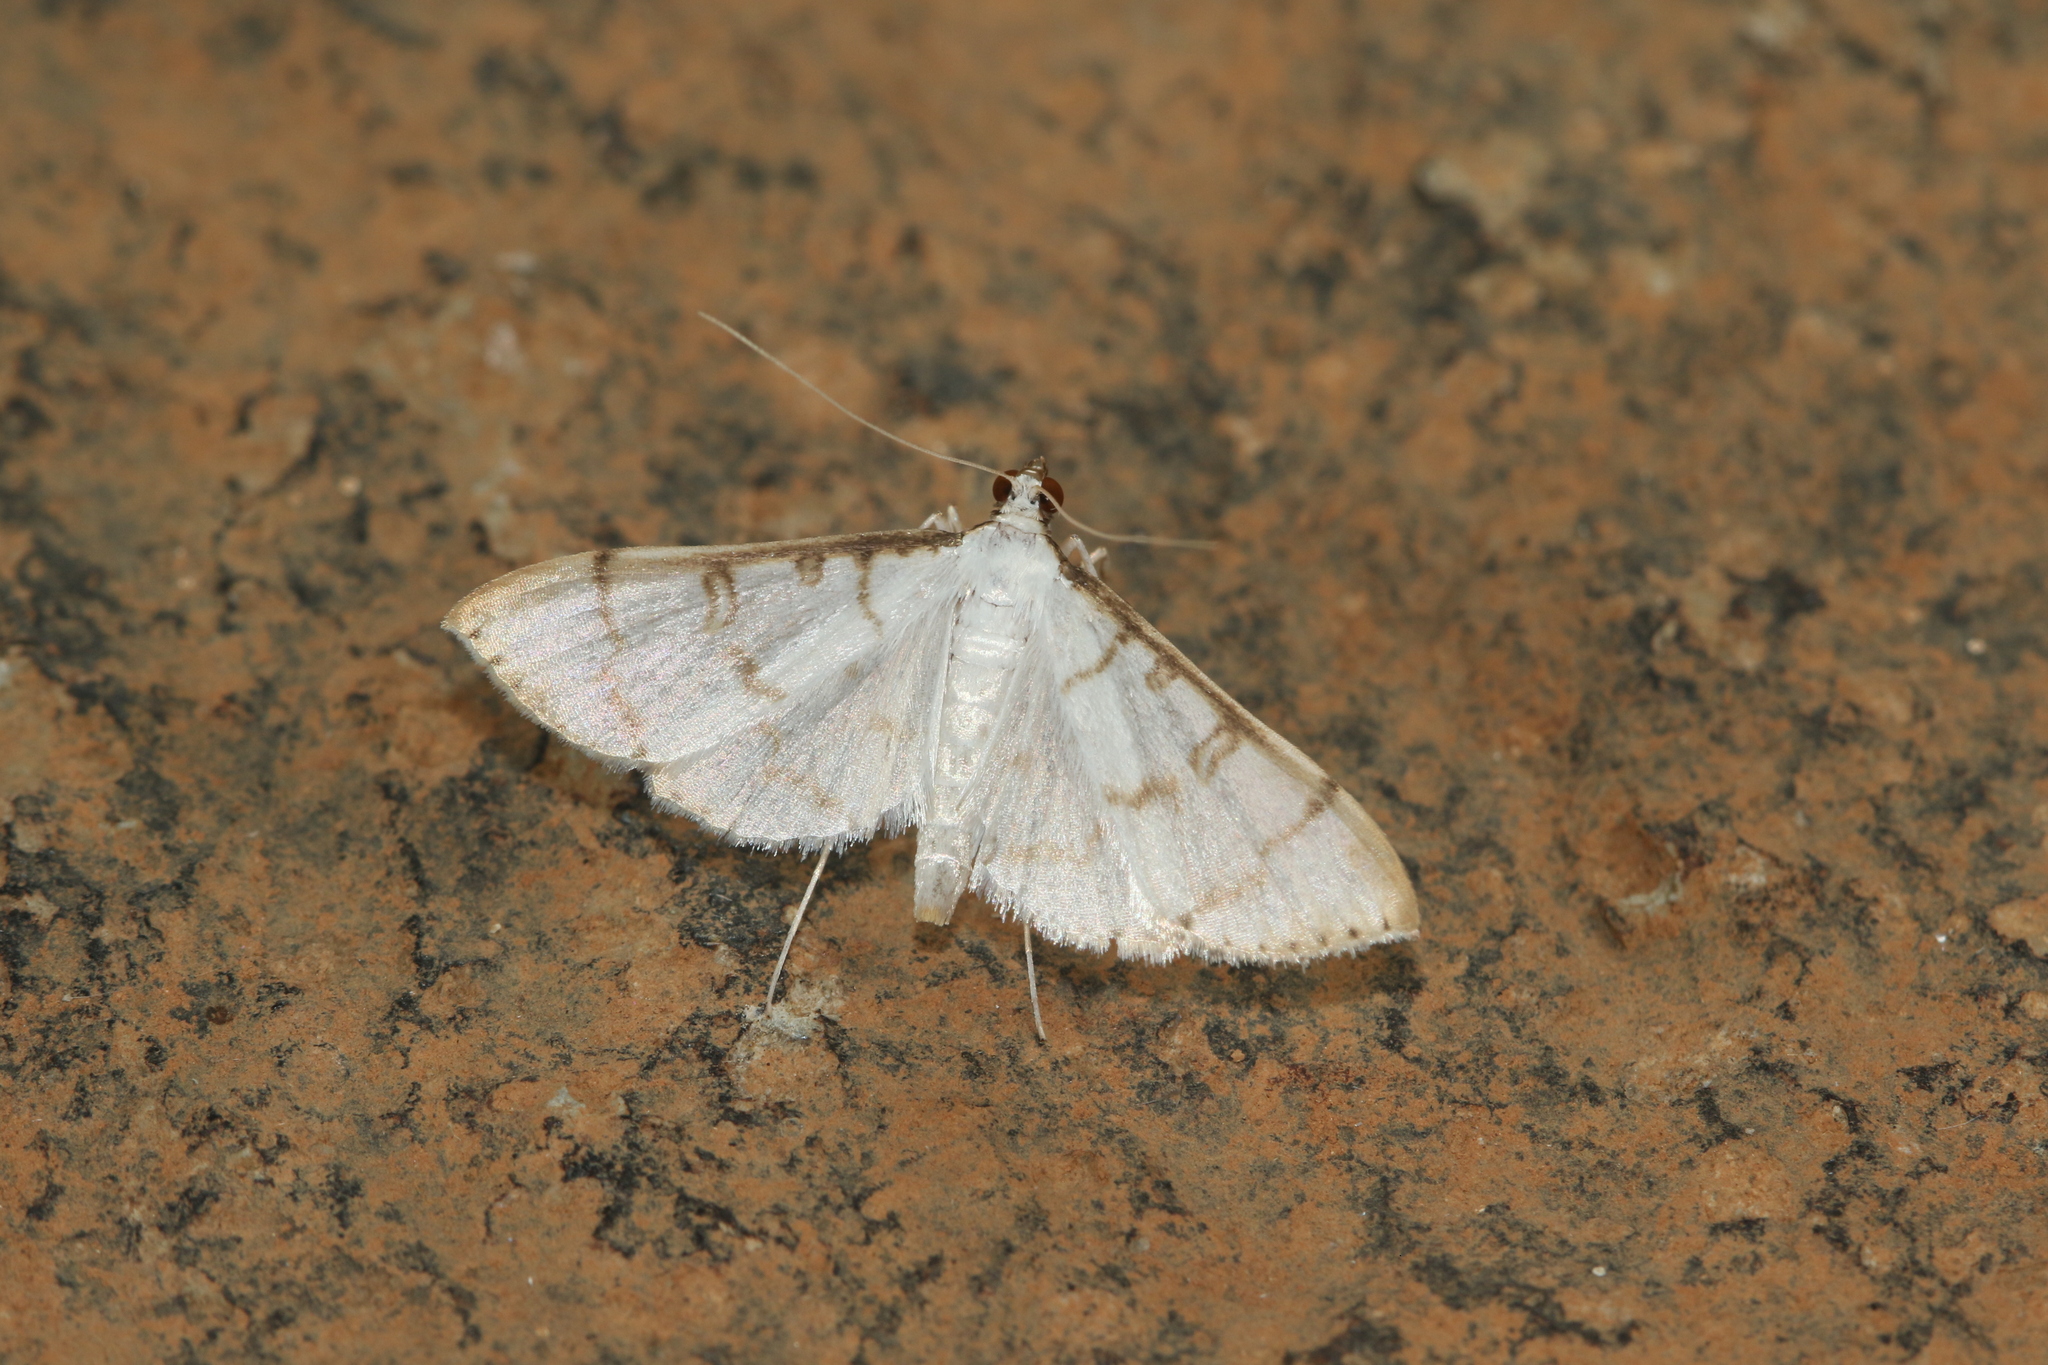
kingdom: Animalia
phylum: Arthropoda
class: Insecta
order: Lepidoptera
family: Crambidae
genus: Lamprosema
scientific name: Lamprosema Blepharomastix ianthealis
